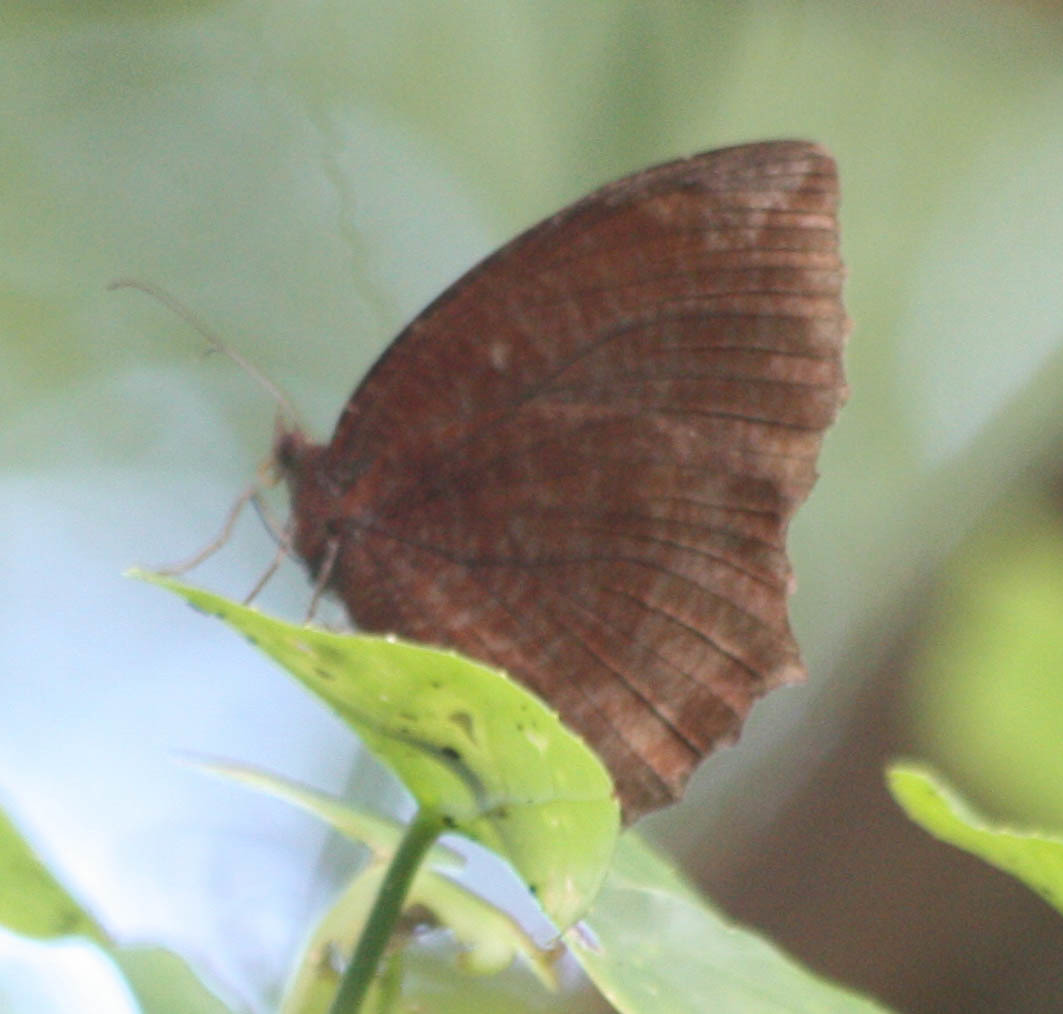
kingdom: Animalia
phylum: Arthropoda
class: Insecta
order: Lepidoptera
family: Nymphalidae
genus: Elymnias
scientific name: Elymnias hypermnestra
